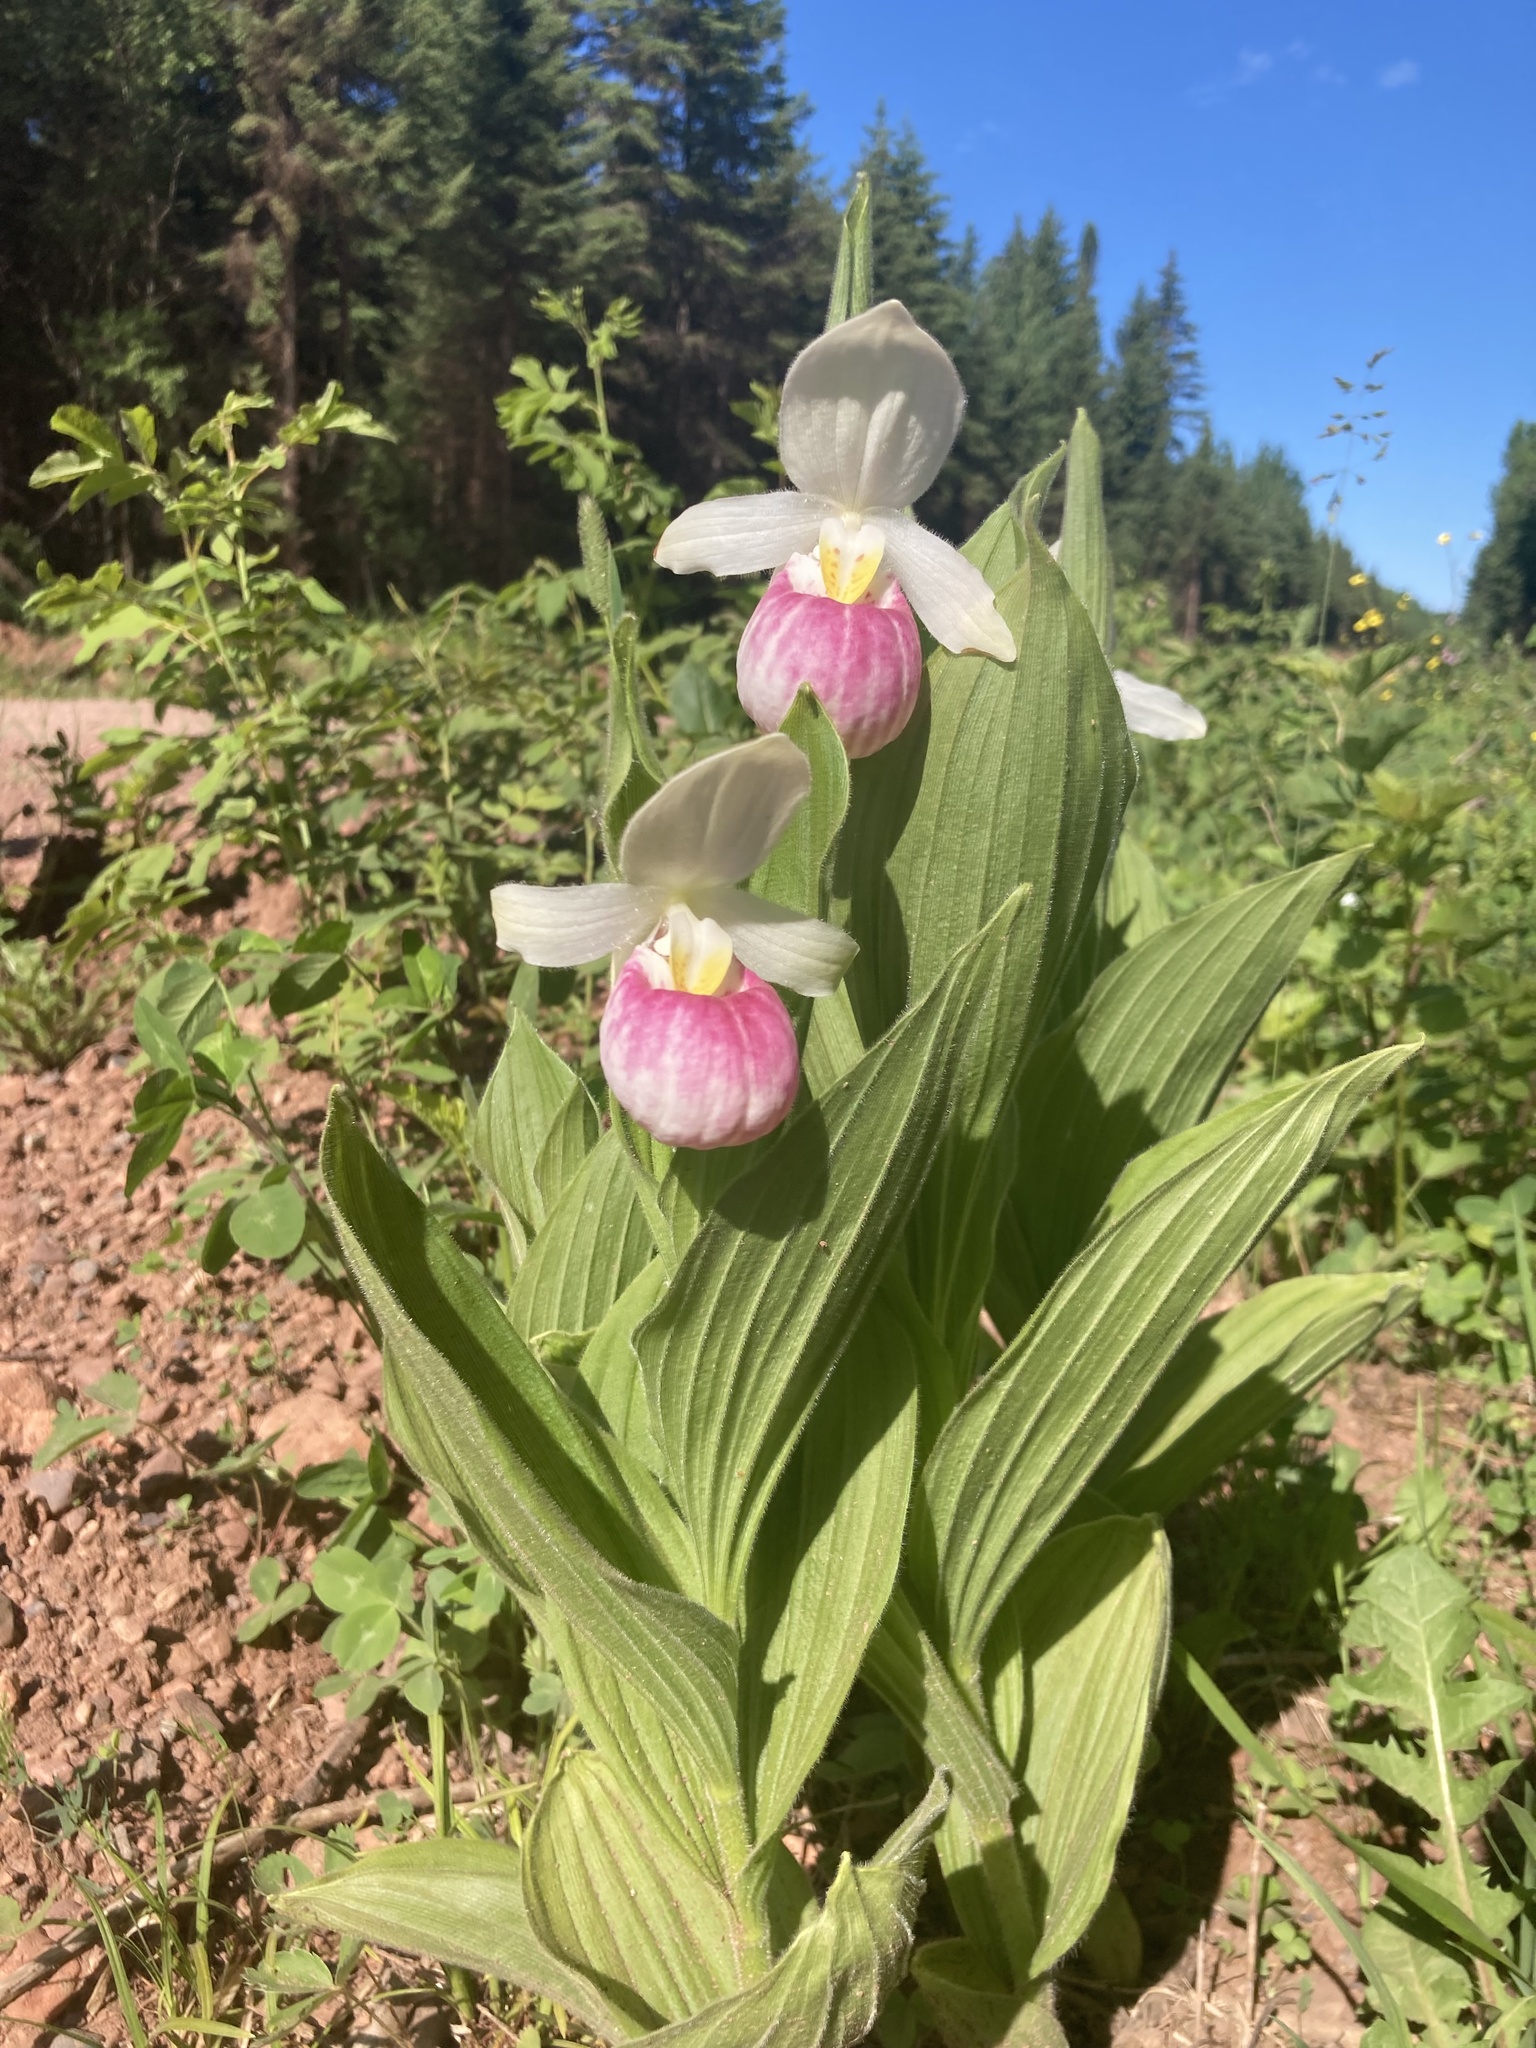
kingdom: Plantae
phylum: Tracheophyta
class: Liliopsida
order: Asparagales
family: Orchidaceae
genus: Cypripedium
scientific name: Cypripedium reginae
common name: Queen lady's-slipper
